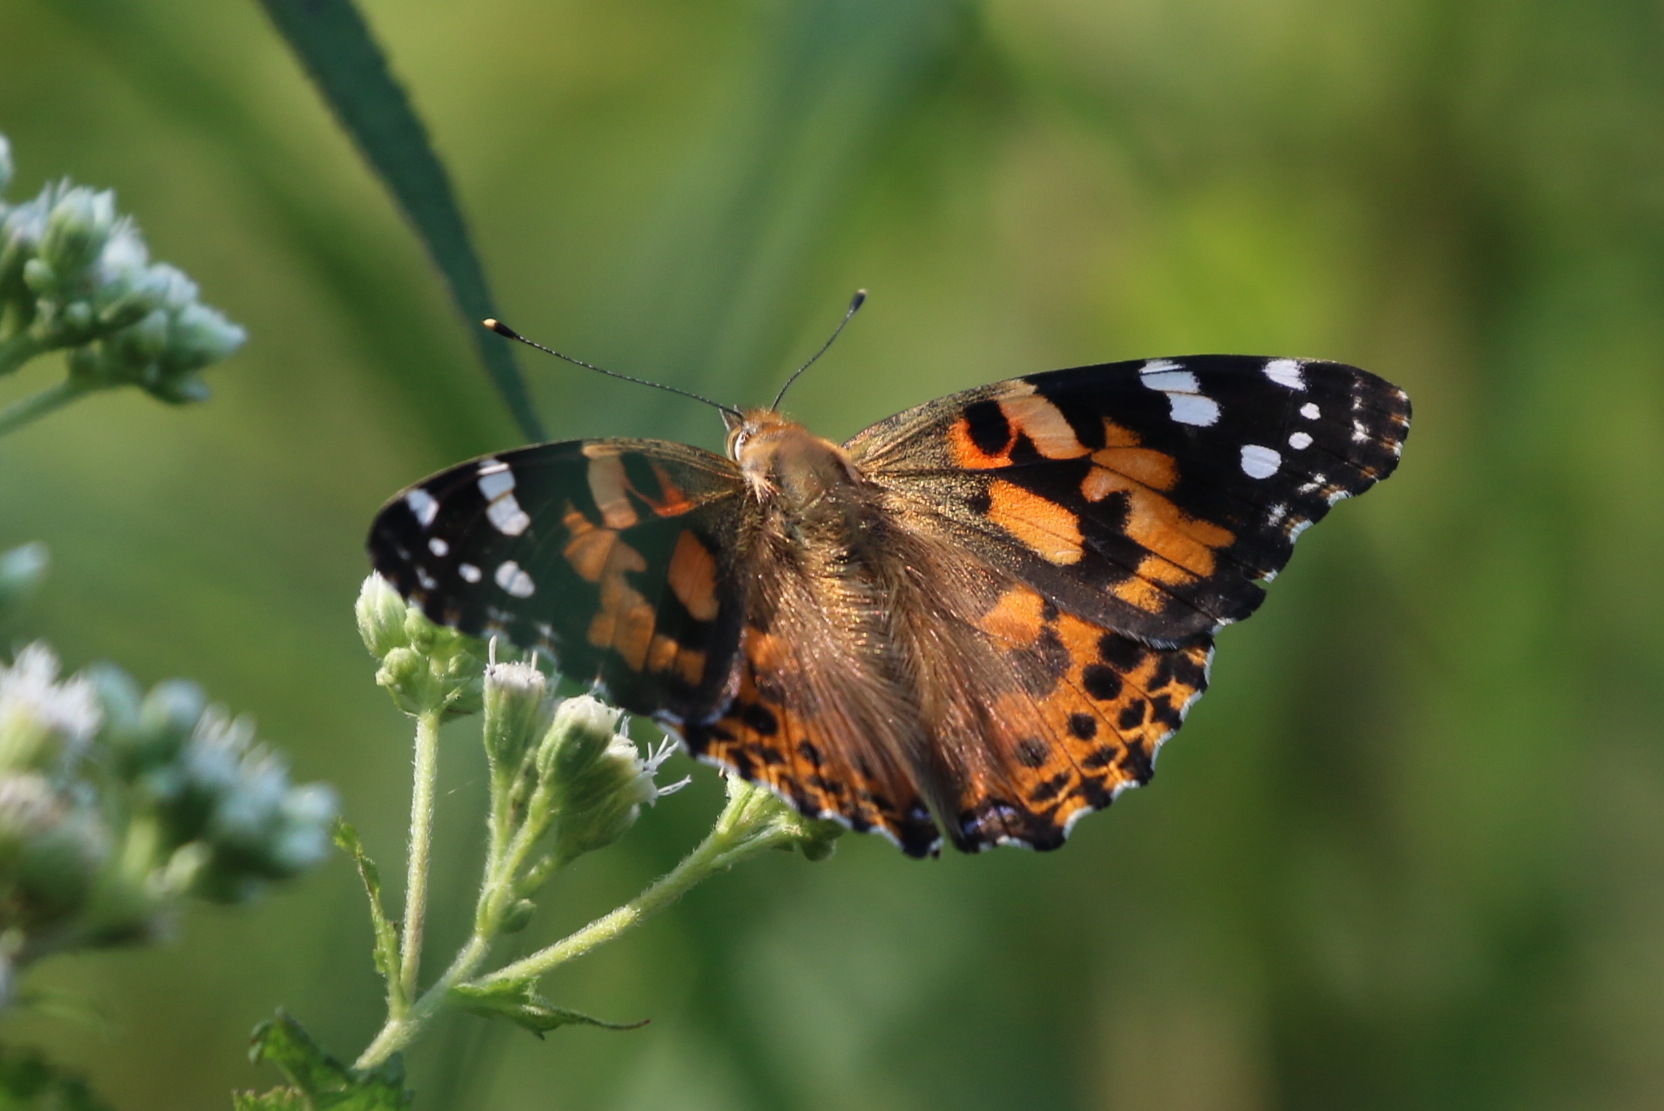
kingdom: Animalia
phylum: Arthropoda
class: Insecta
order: Lepidoptera
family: Nymphalidae
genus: Vanessa
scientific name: Vanessa cardui
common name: Painted lady
